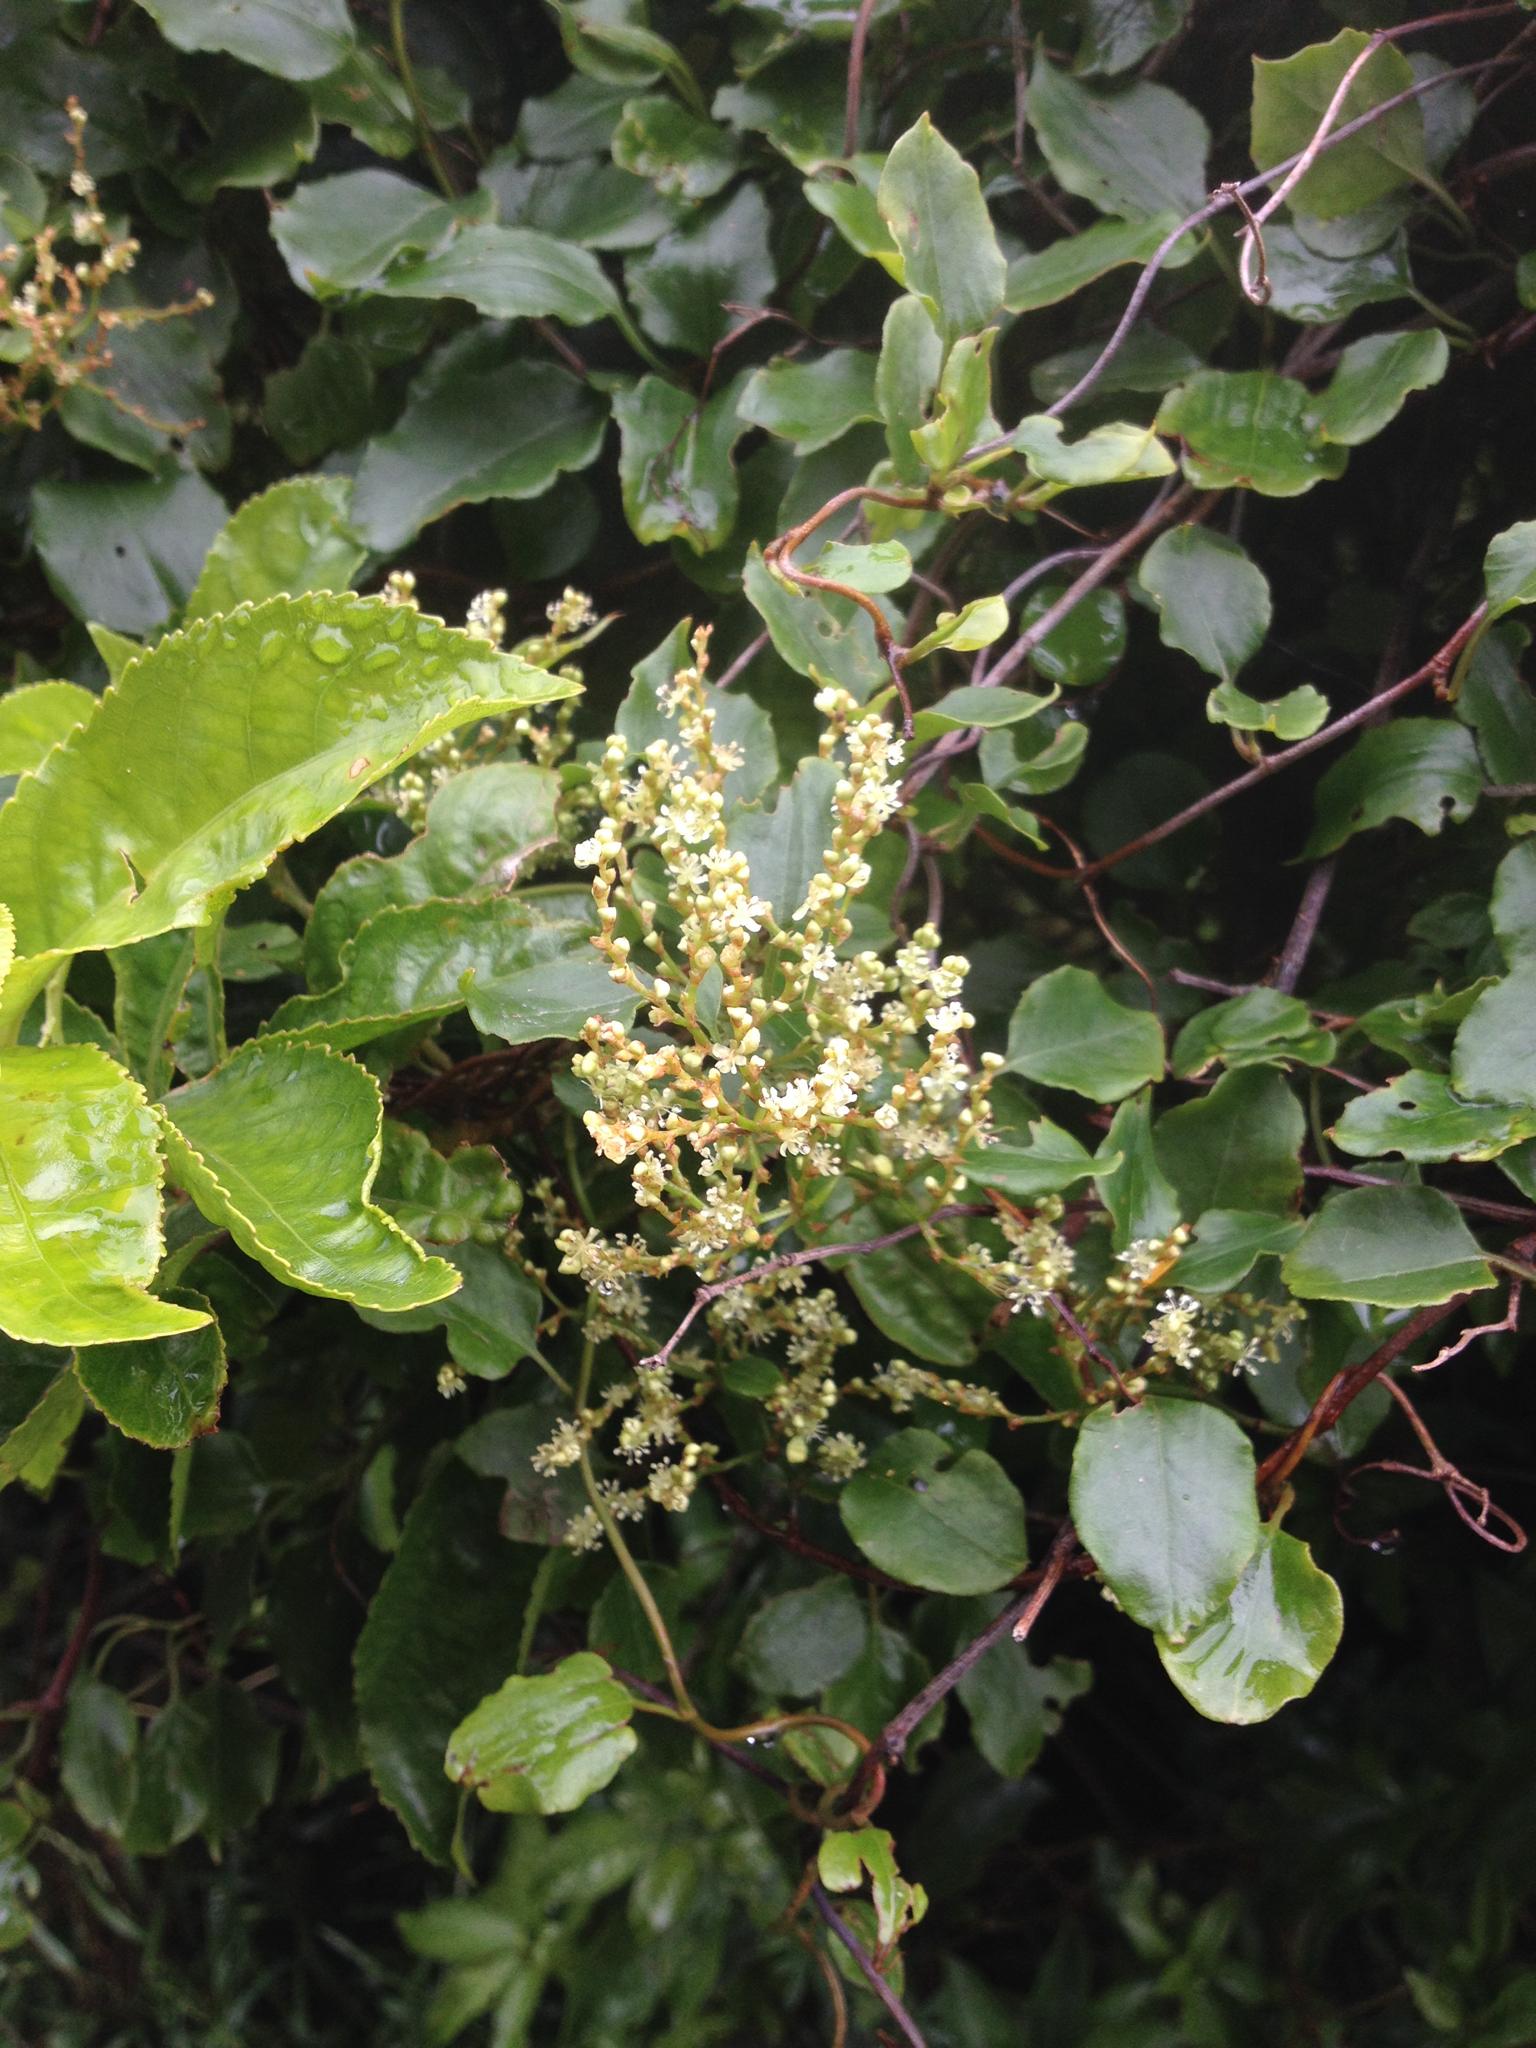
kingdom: Plantae
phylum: Tracheophyta
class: Magnoliopsida
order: Caryophyllales
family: Polygonaceae
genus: Muehlenbeckia
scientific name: Muehlenbeckia australis
